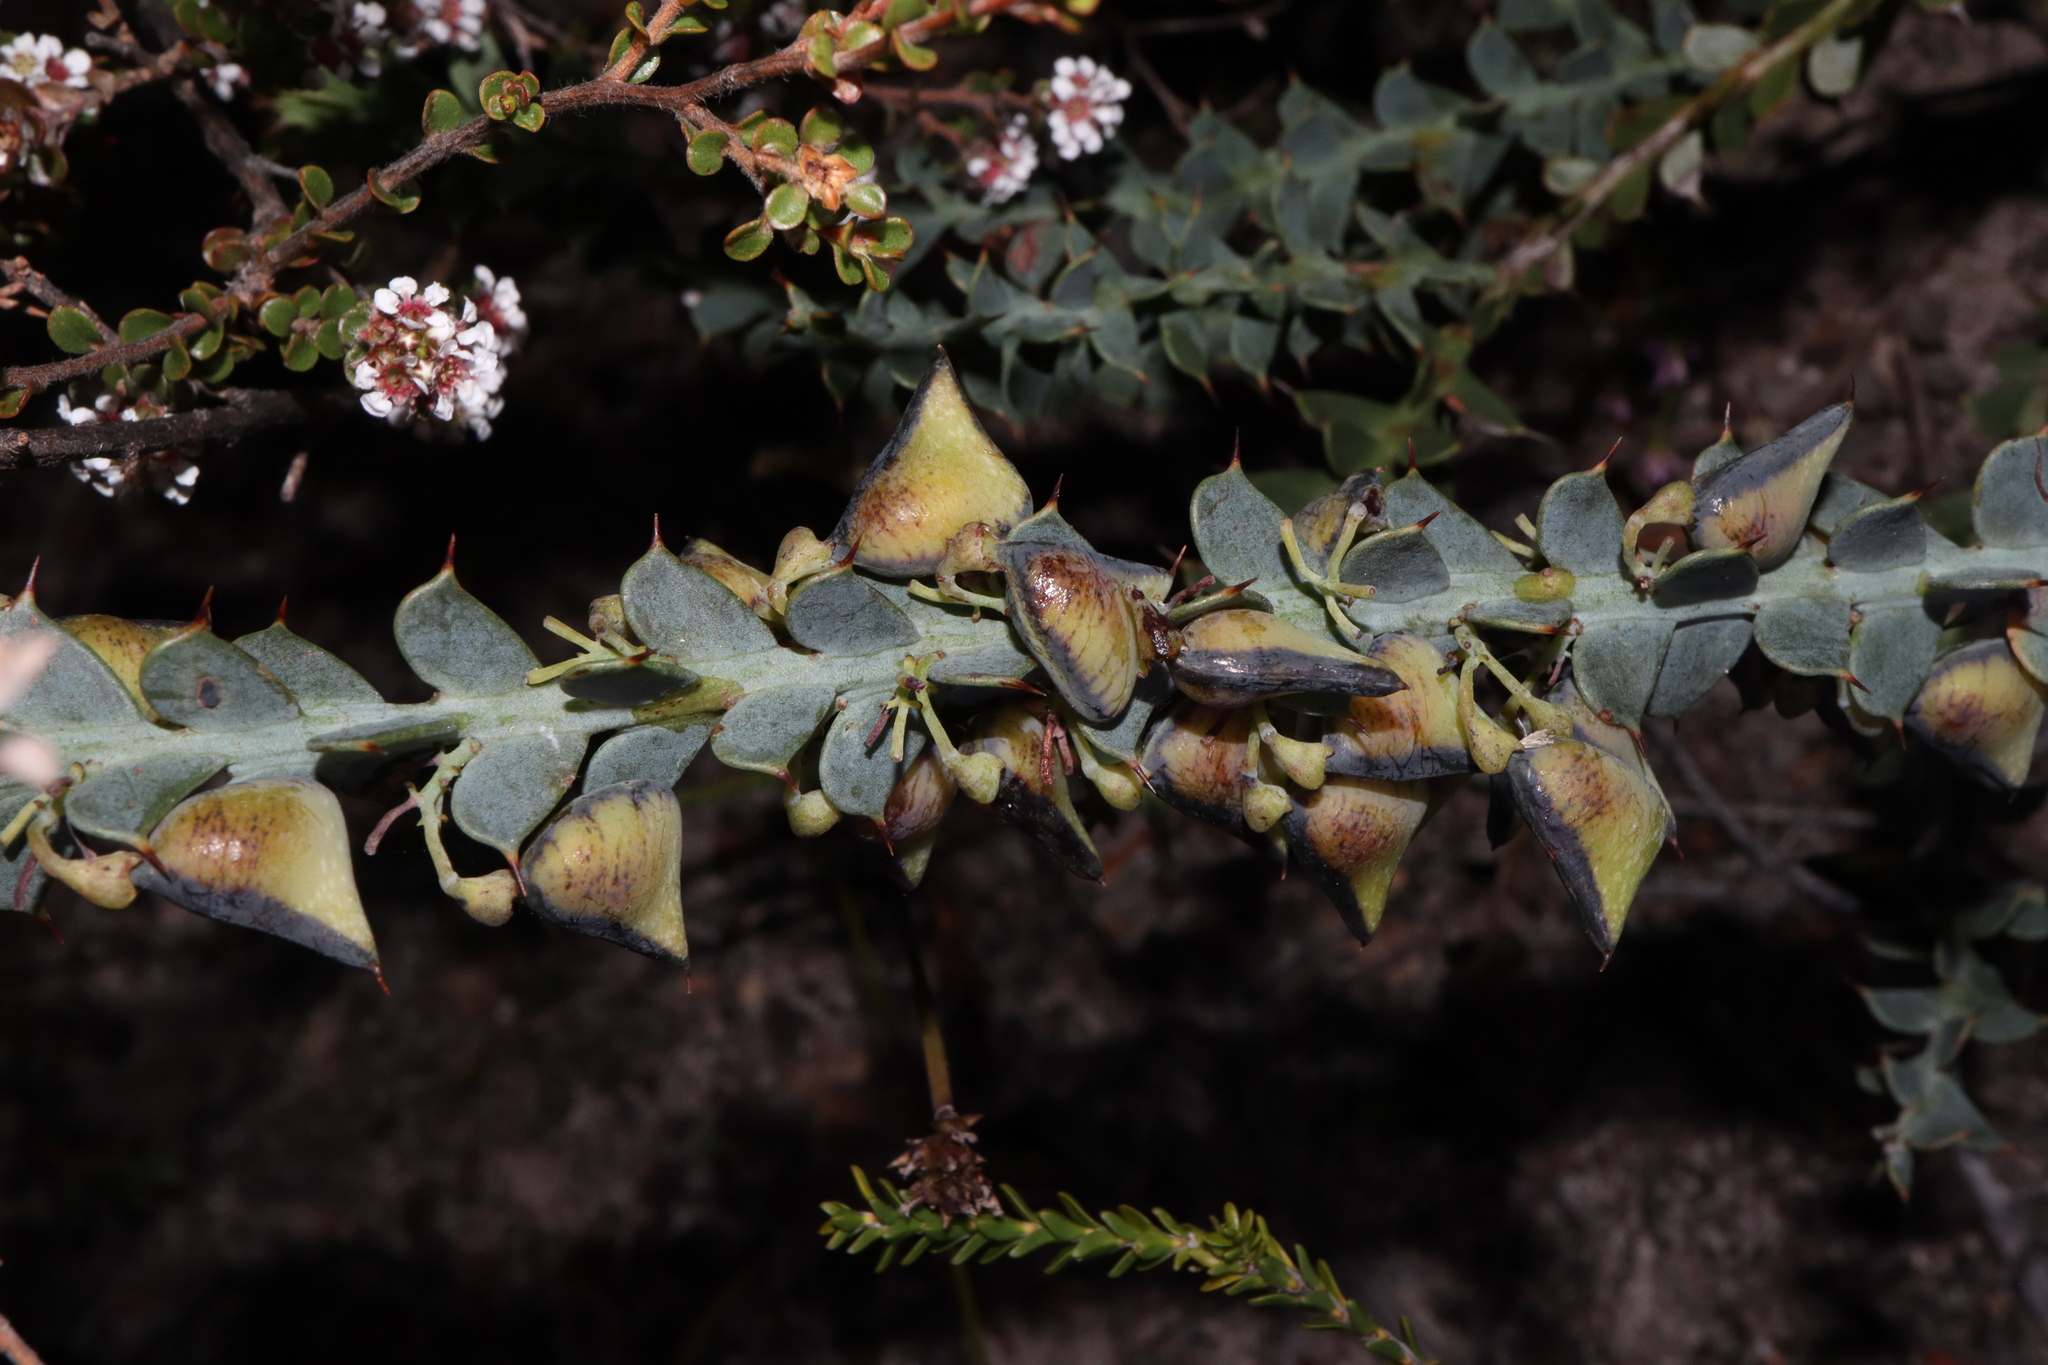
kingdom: Plantae
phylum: Tracheophyta
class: Magnoliopsida
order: Fabales
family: Fabaceae
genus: Daviesia
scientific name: Daviesia striata
